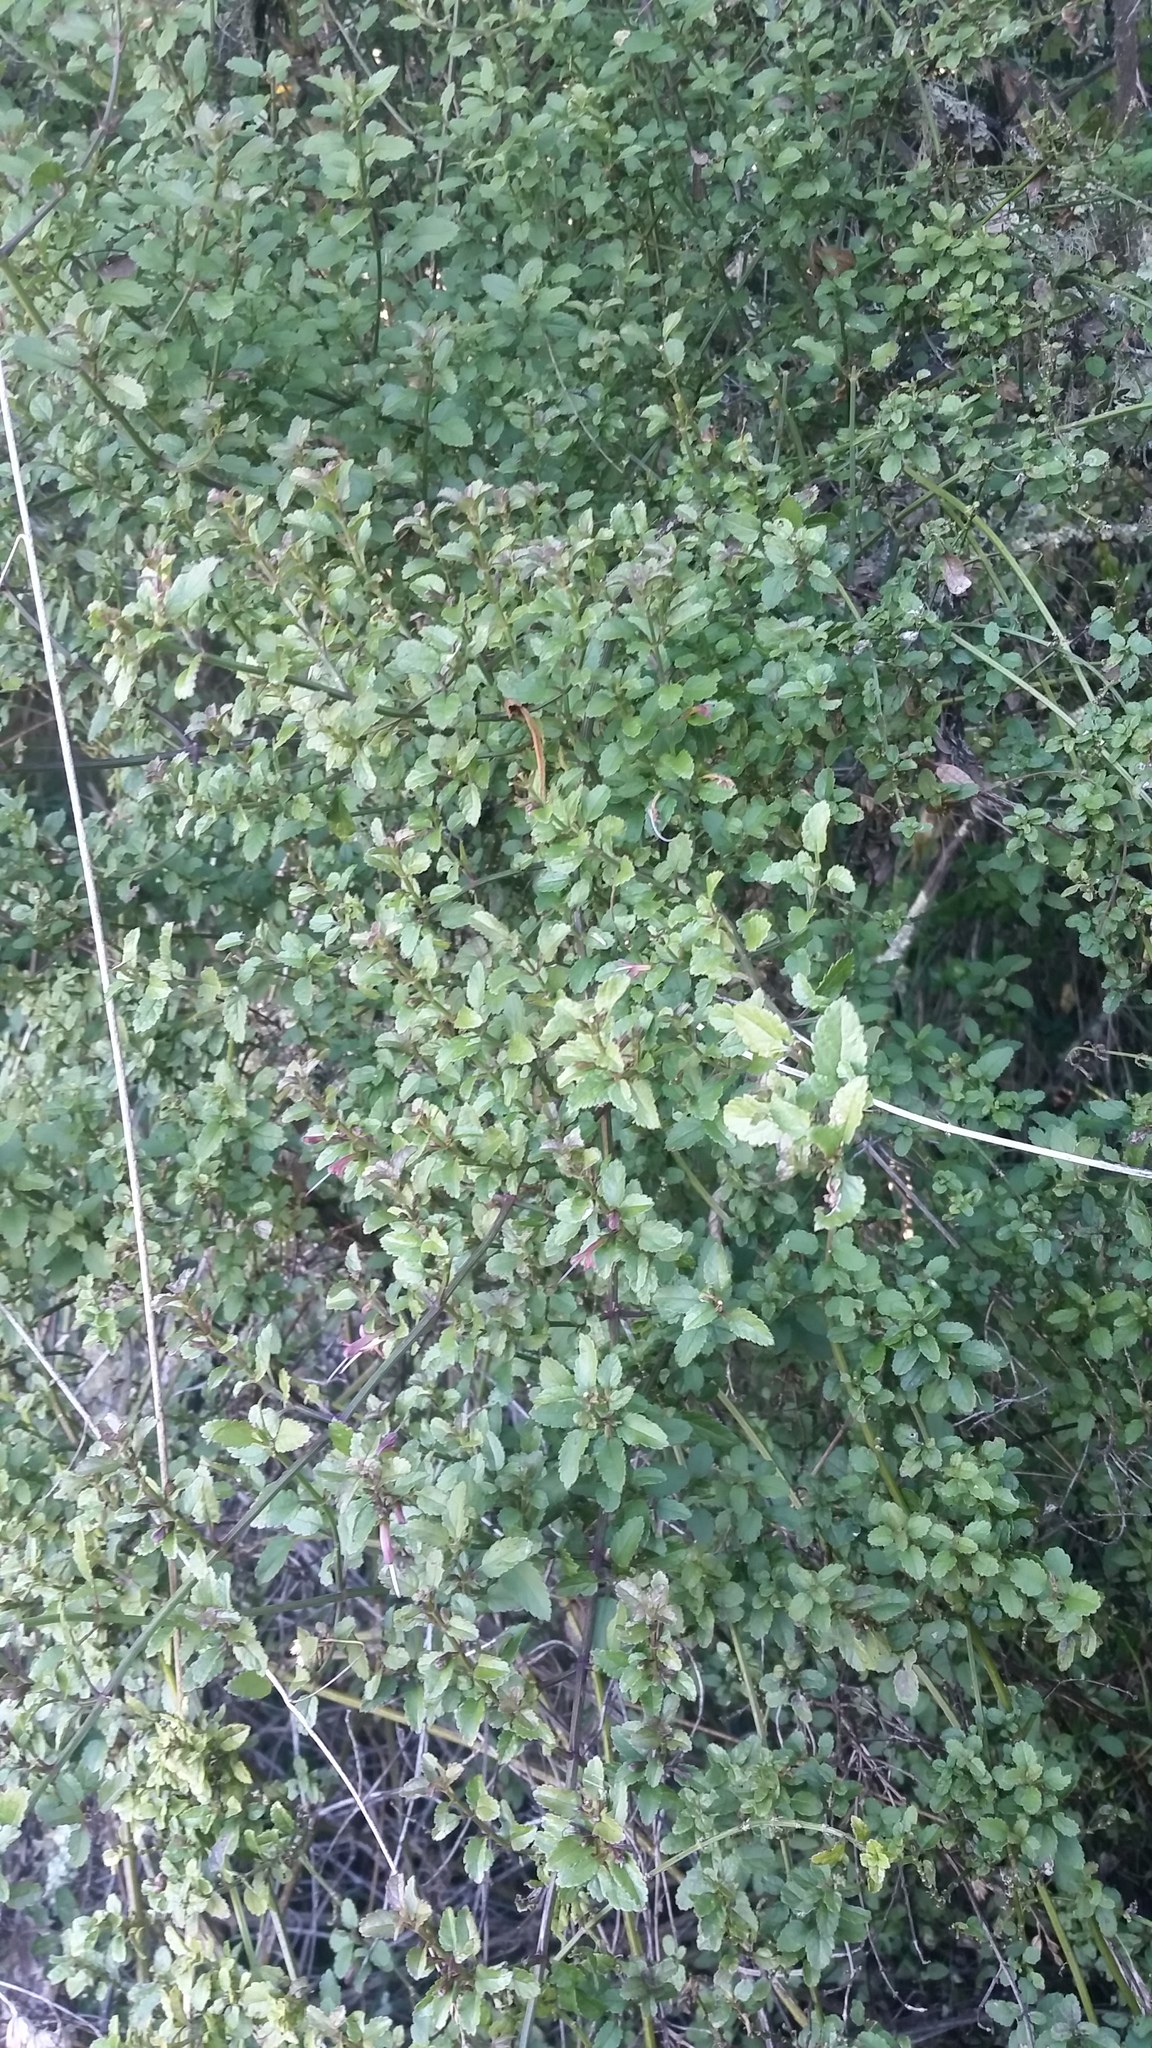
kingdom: Plantae
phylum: Tracheophyta
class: Magnoliopsida
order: Lamiales
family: Lamiaceae
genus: Stenogyne
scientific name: Stenogyne microphylla
